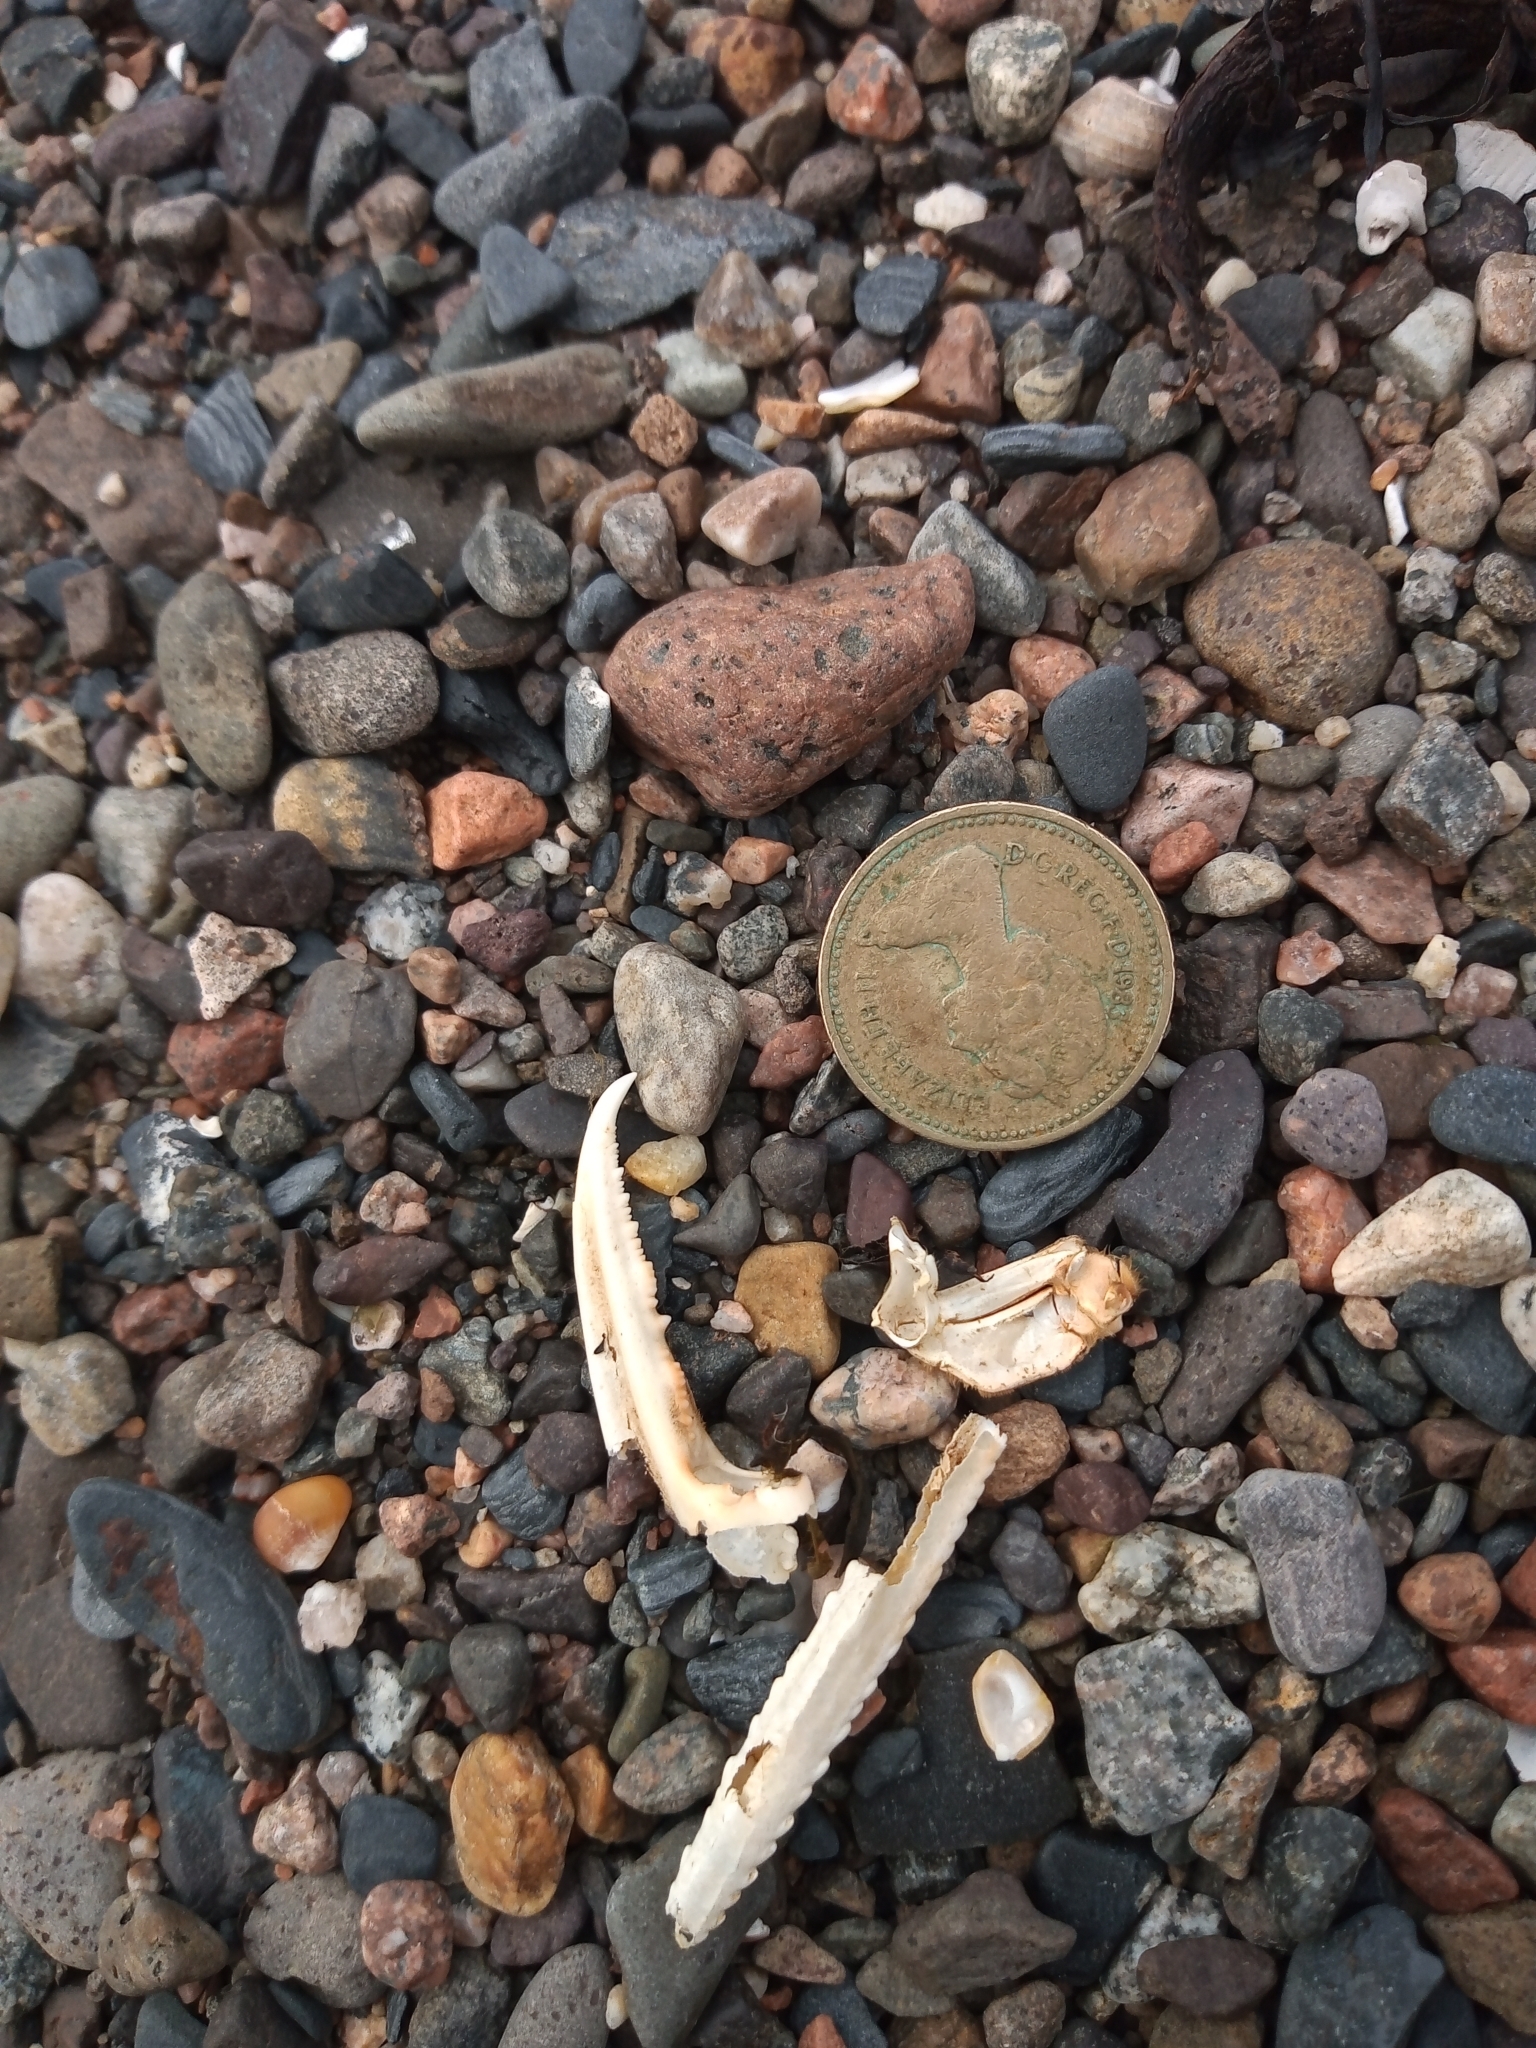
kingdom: Animalia
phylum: Arthropoda
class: Malacostraca
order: Decapoda
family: Nephropidae
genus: Nephrops
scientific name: Nephrops norvegicus
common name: Norway lobster
